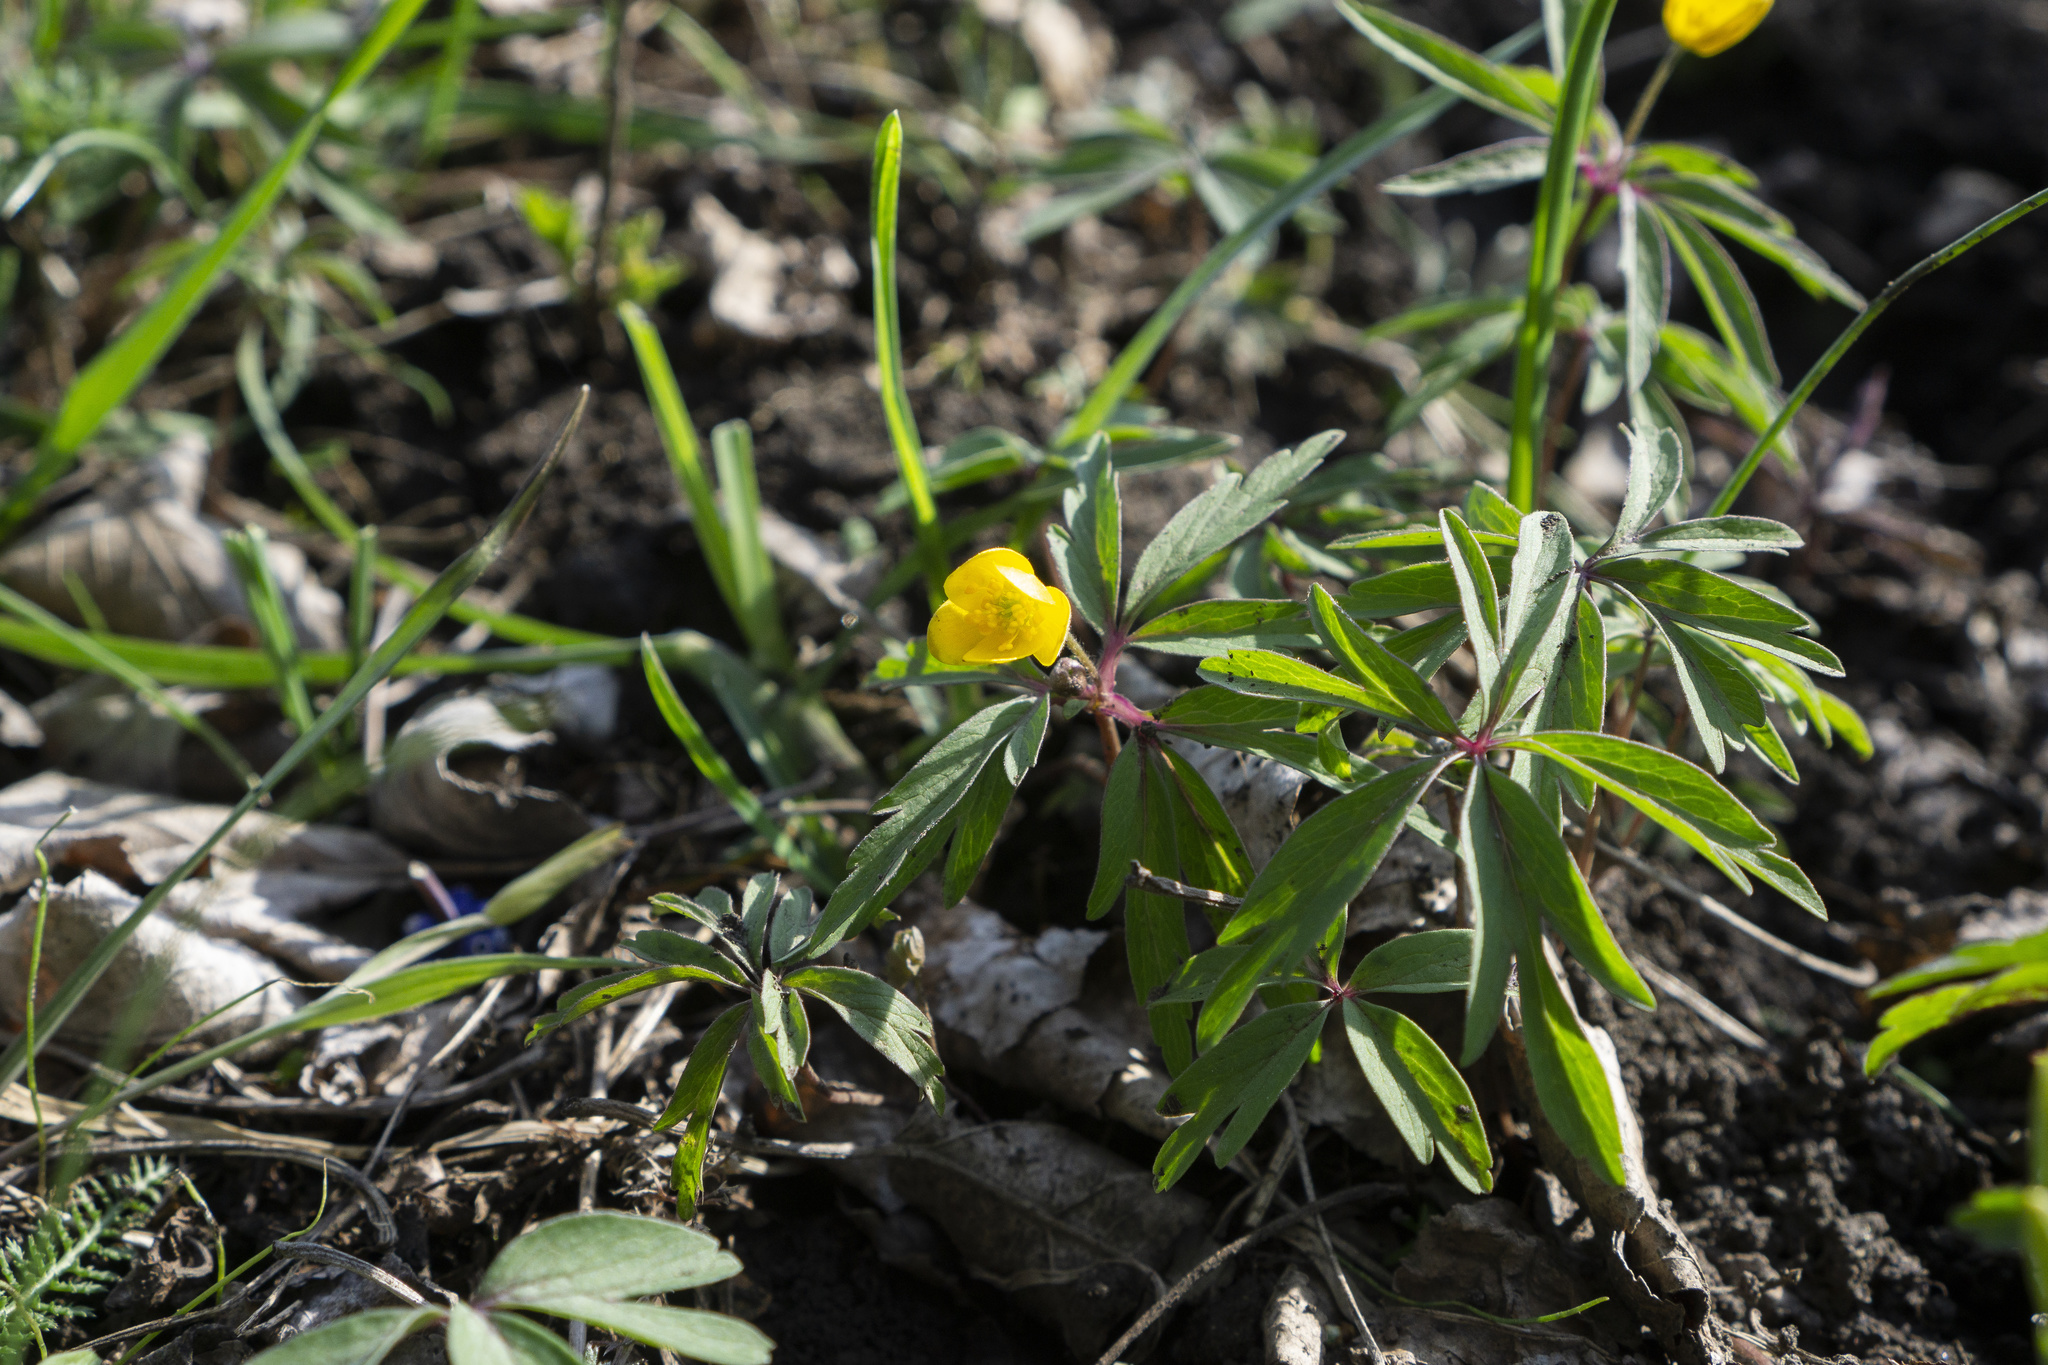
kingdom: Plantae
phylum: Tracheophyta
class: Magnoliopsida
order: Ranunculales
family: Ranunculaceae
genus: Anemone
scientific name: Anemone ranunculoides
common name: Yellow anemone
